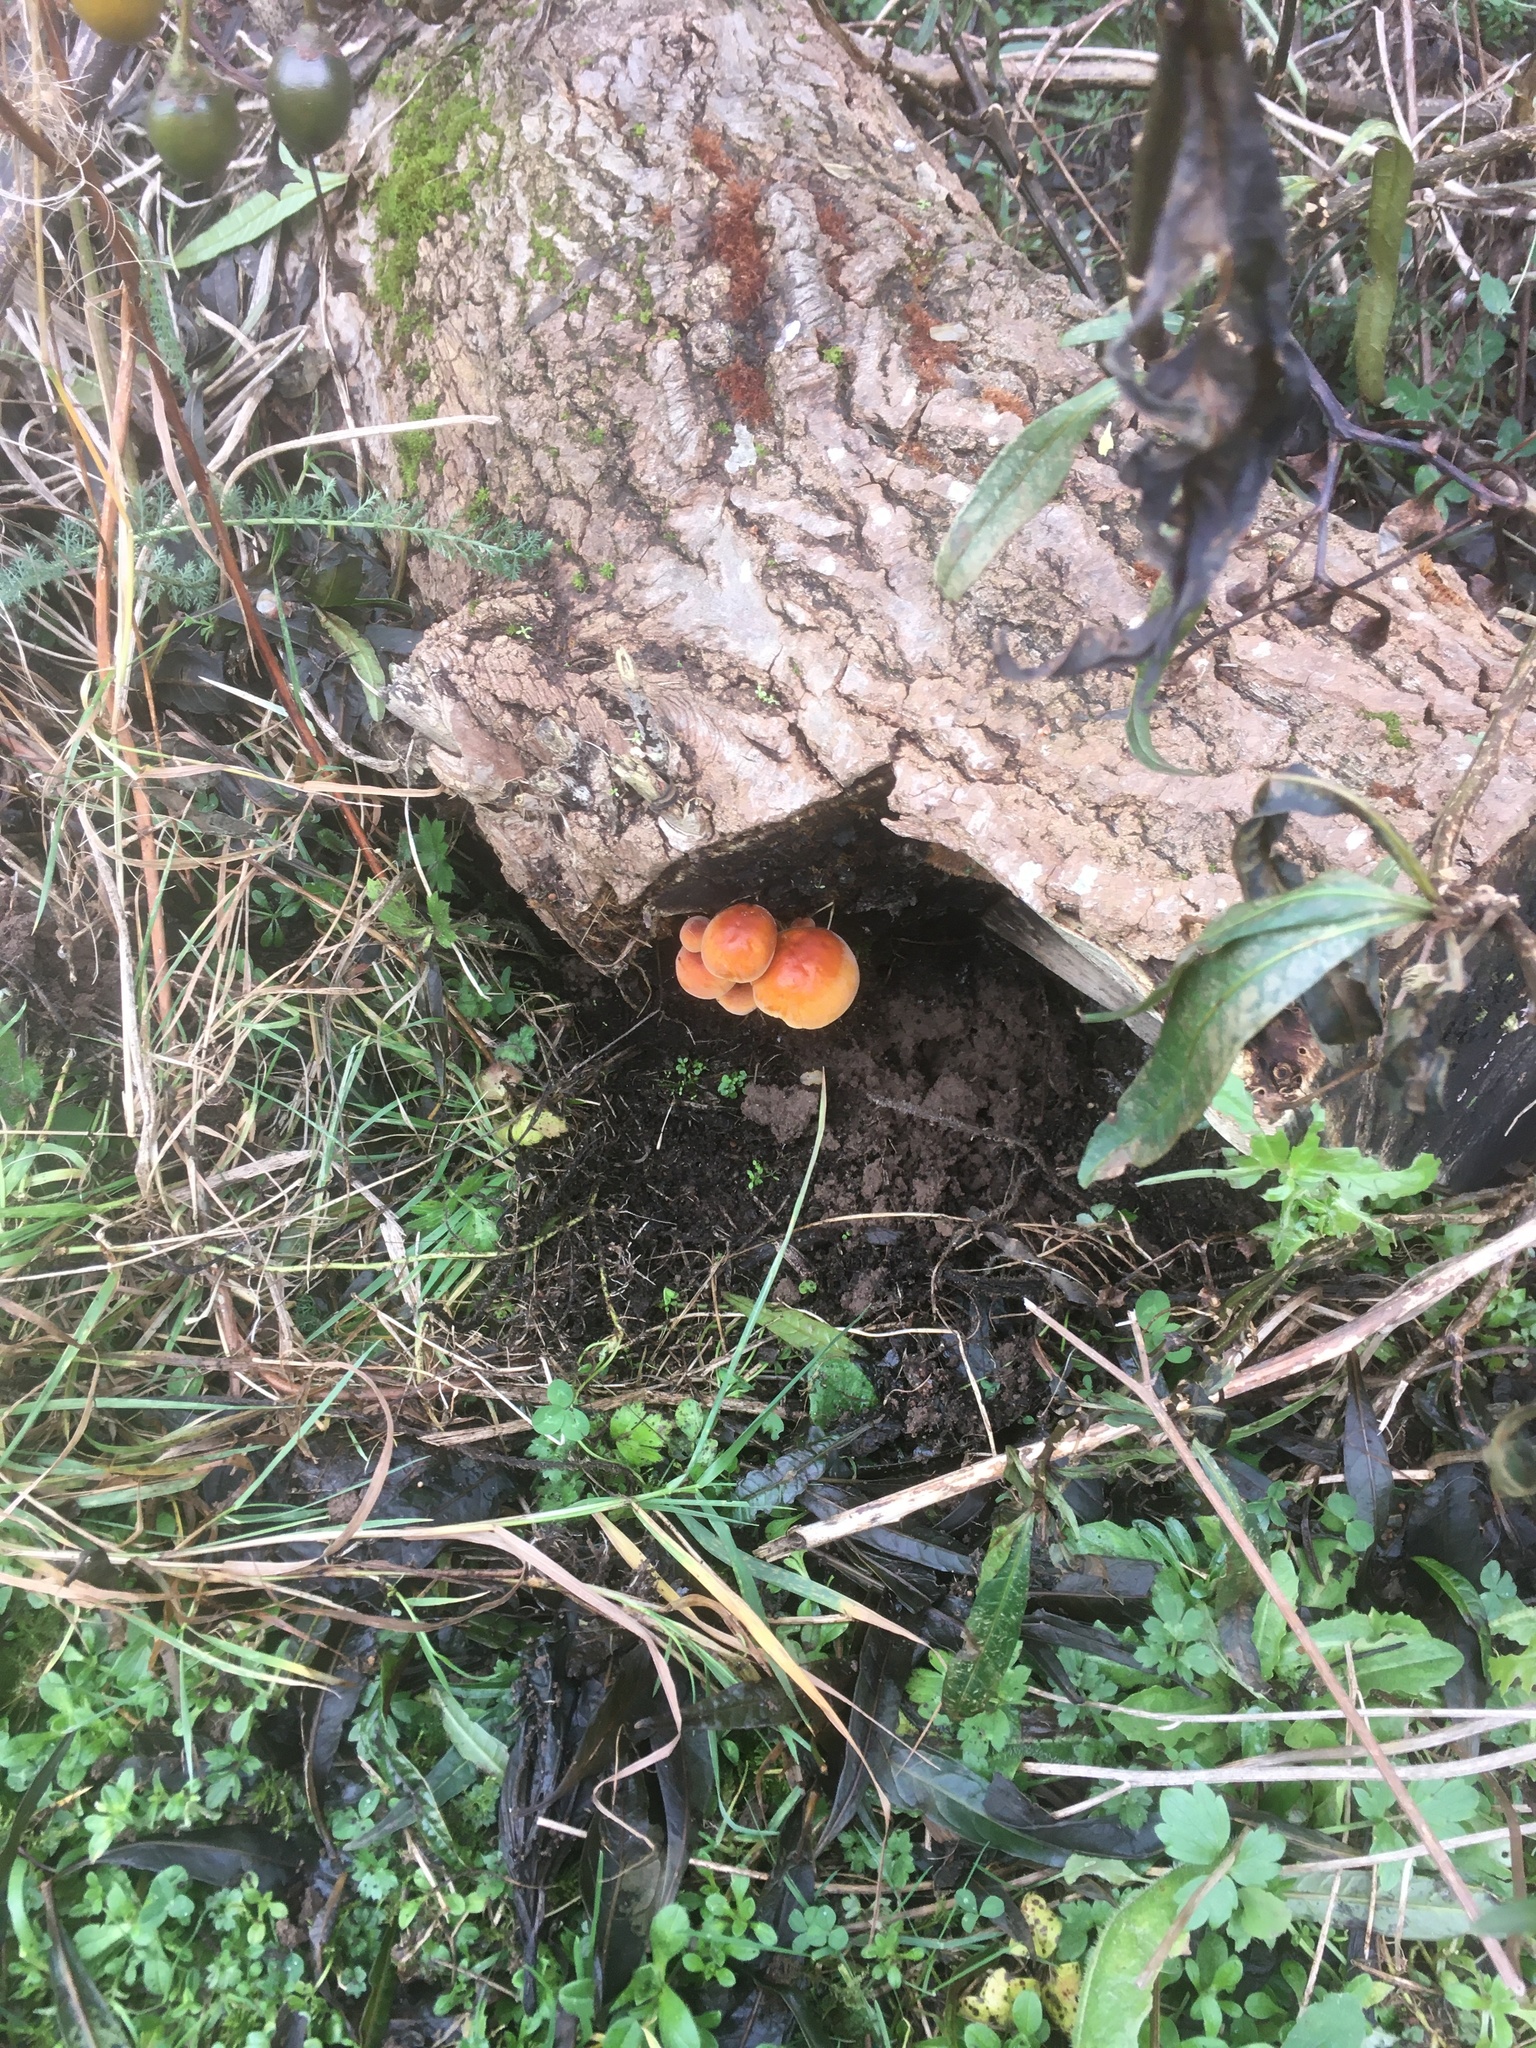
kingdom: Fungi
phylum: Basidiomycota
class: Agaricomycetes
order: Agaricales
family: Physalacriaceae
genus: Flammulina
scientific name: Flammulina velutipes
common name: Velvet shank
